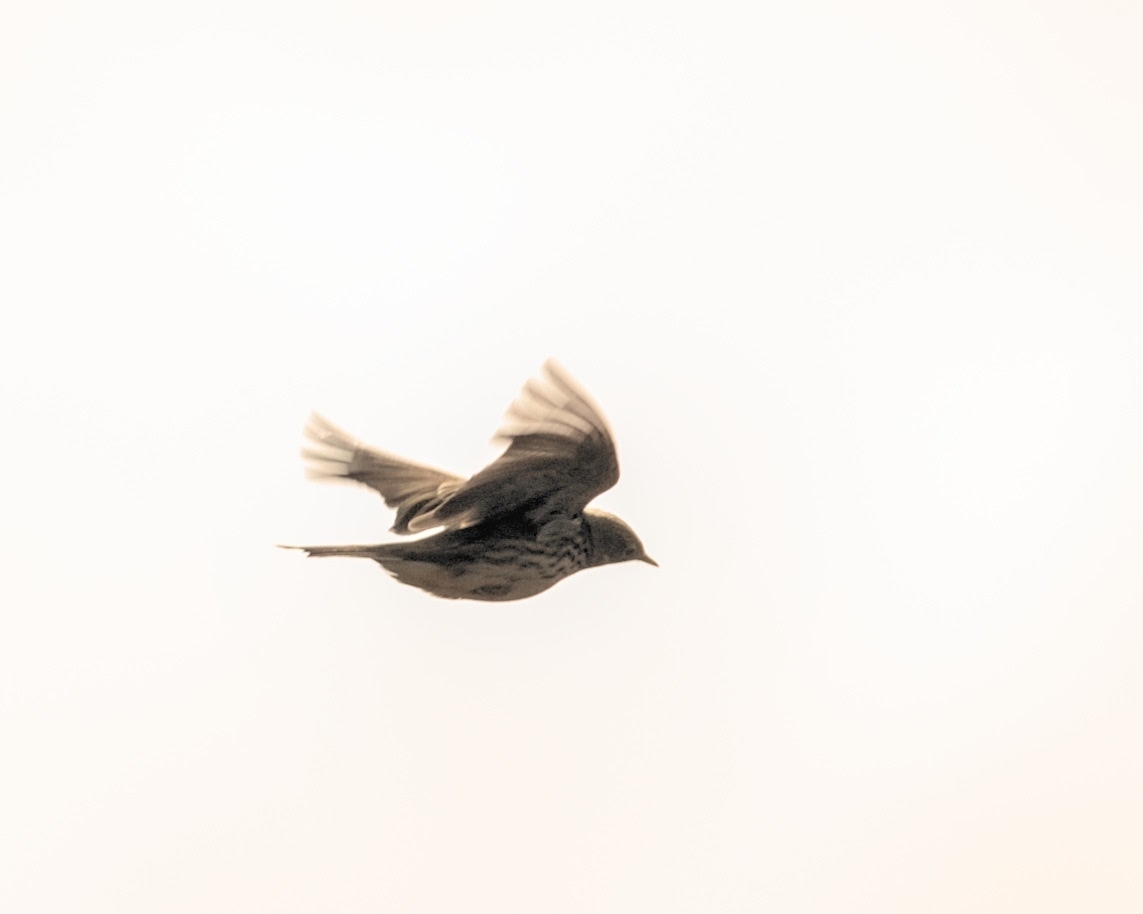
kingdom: Animalia
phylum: Chordata
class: Aves
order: Passeriformes
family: Motacillidae
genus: Anthus
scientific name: Anthus pratensis
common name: Meadow pipit
